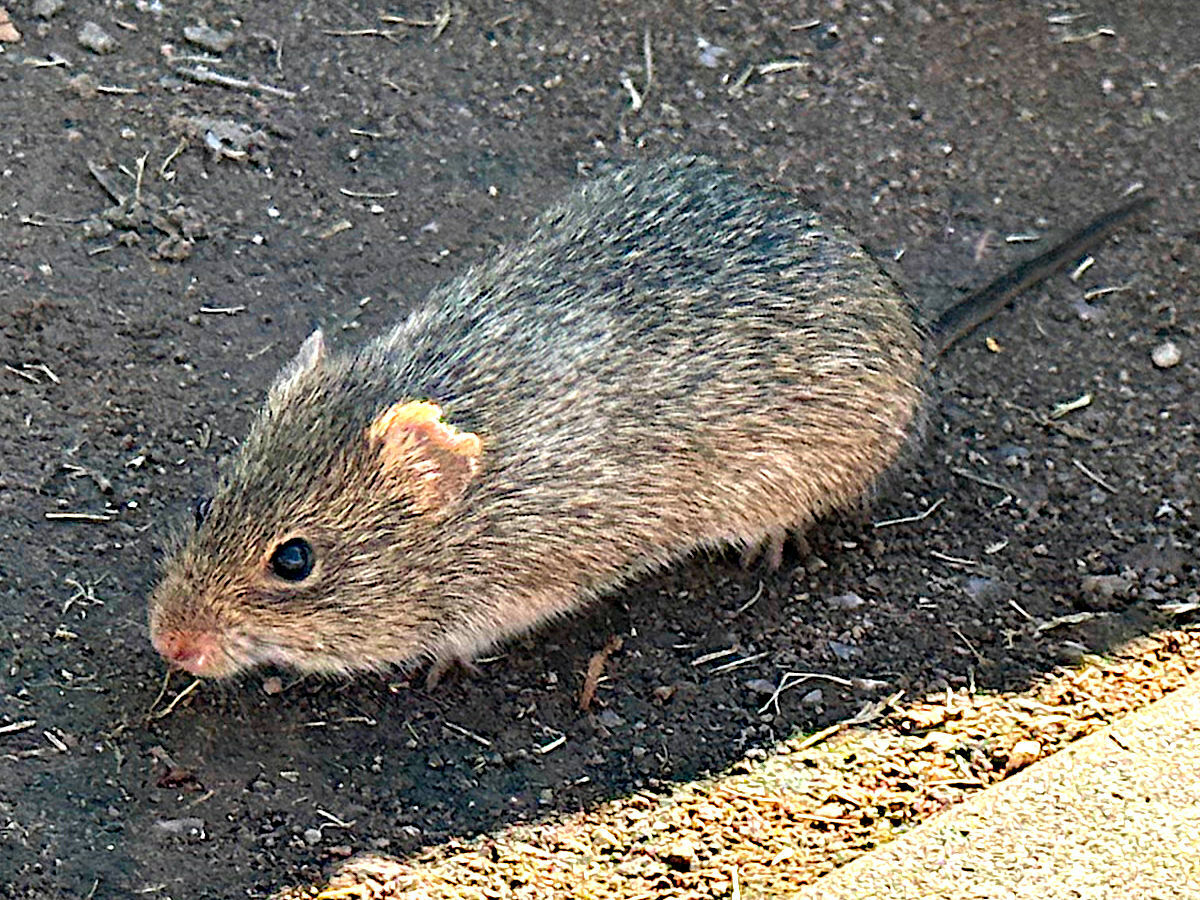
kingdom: Animalia
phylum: Chordata
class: Mammalia
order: Rodentia
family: Cricetidae
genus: Sigmodon
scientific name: Sigmodon arizonae
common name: Arizona cotton rat
